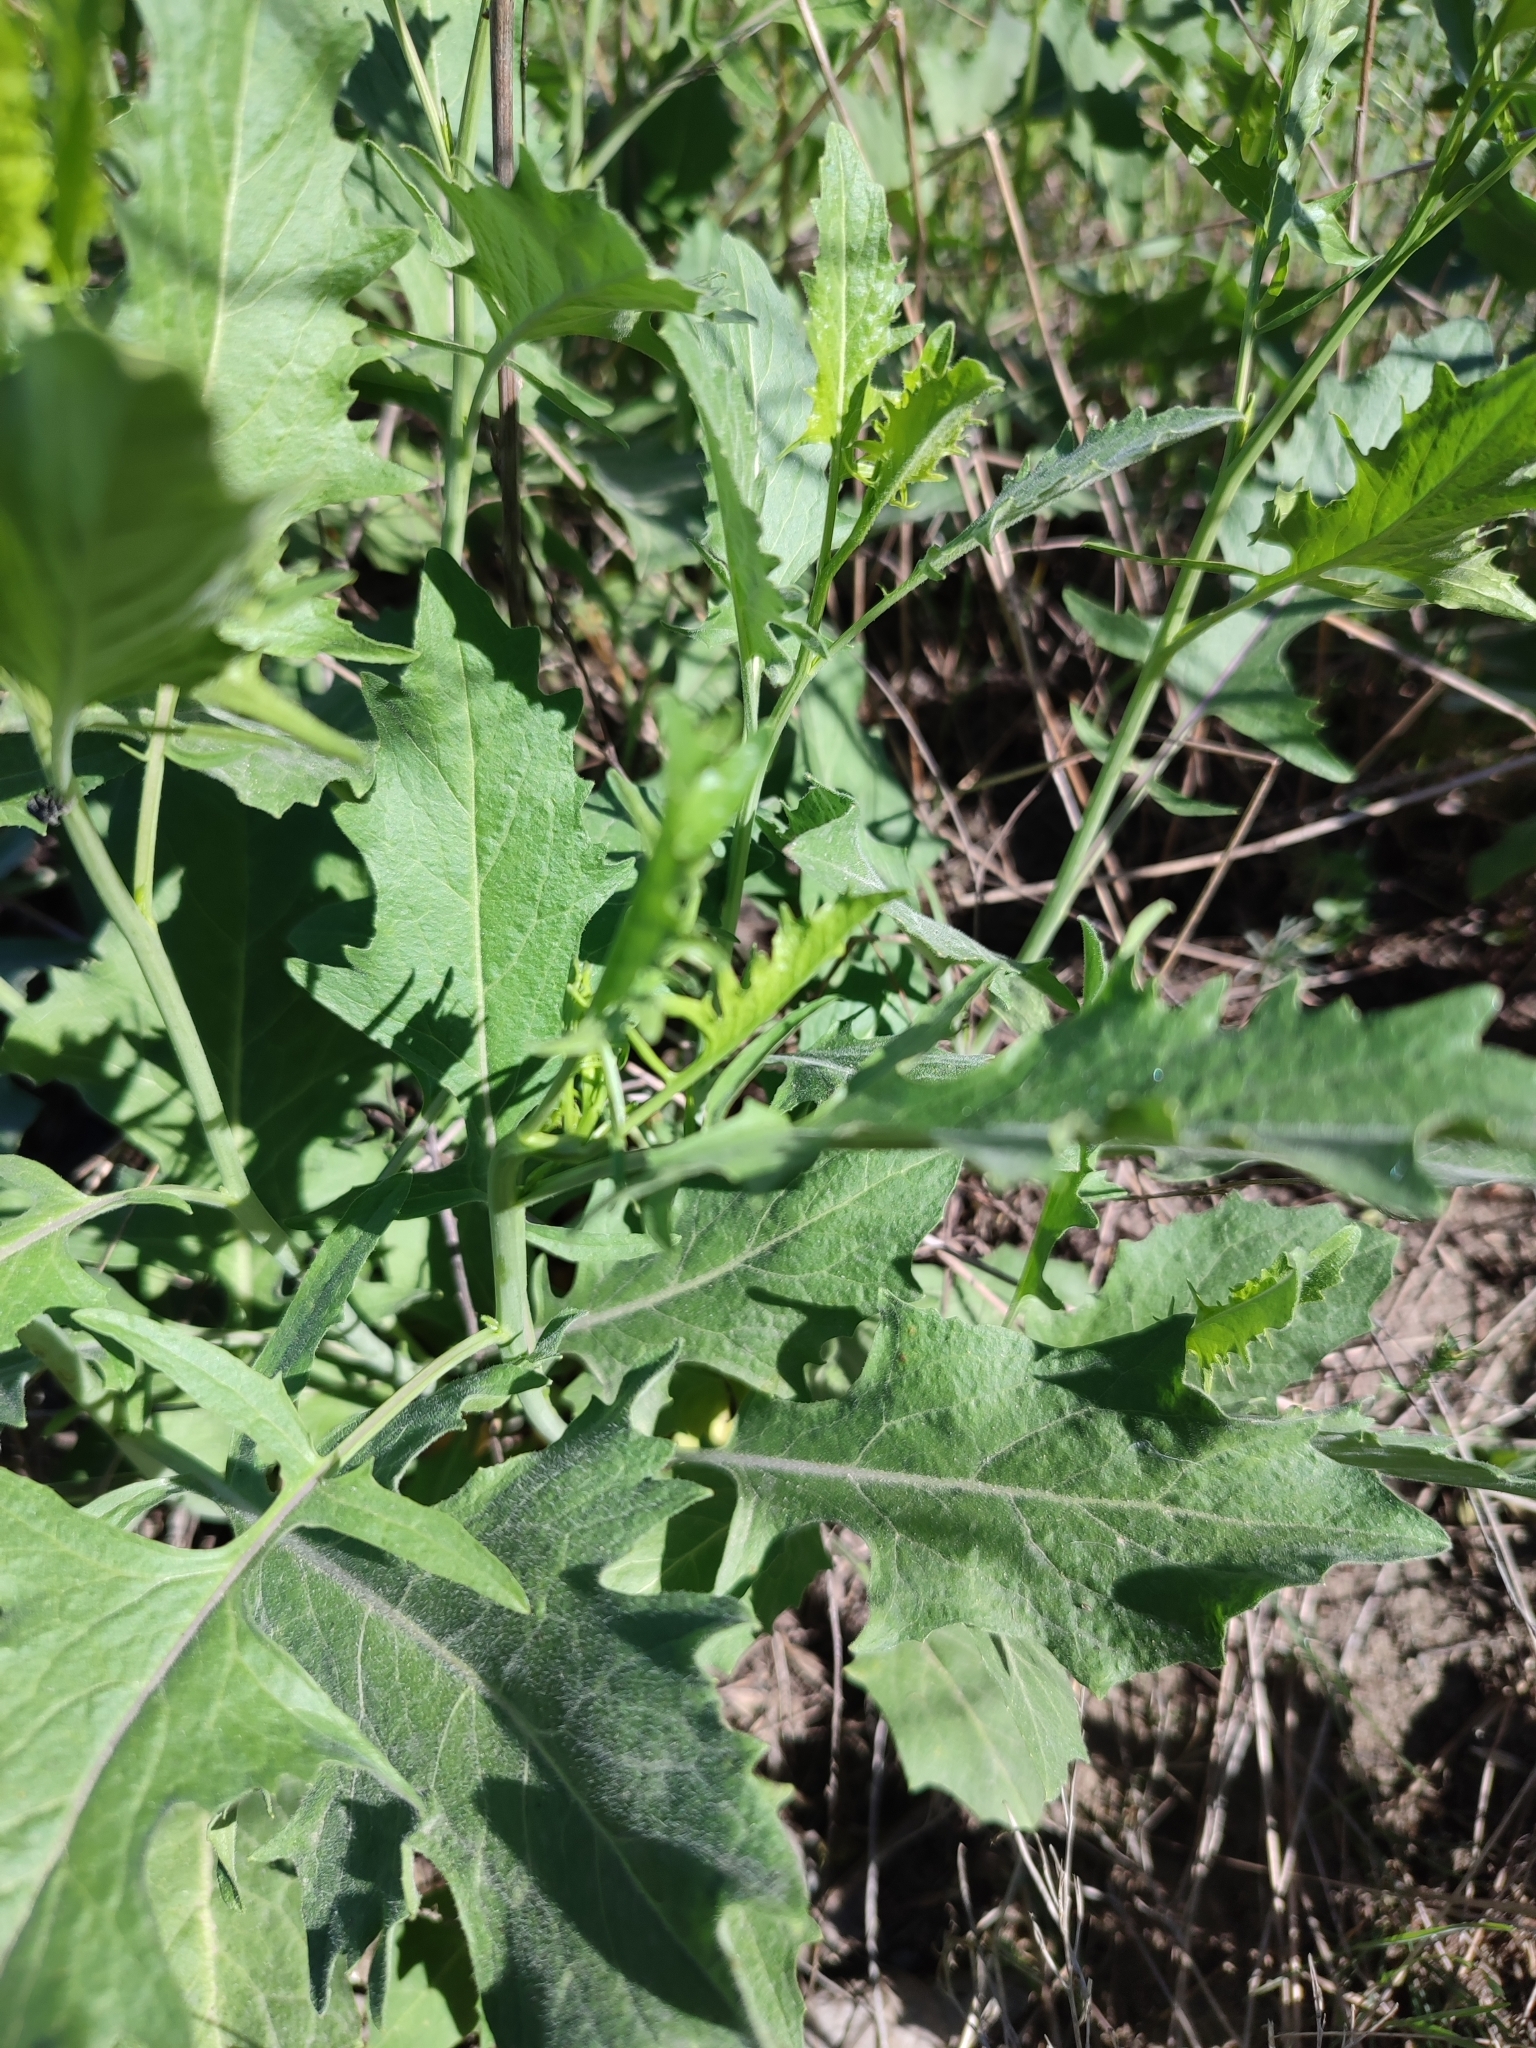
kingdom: Plantae
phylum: Tracheophyta
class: Magnoliopsida
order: Brassicales
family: Brassicaceae
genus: Sisymbrium
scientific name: Sisymbrium volgense
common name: Russian mustard
